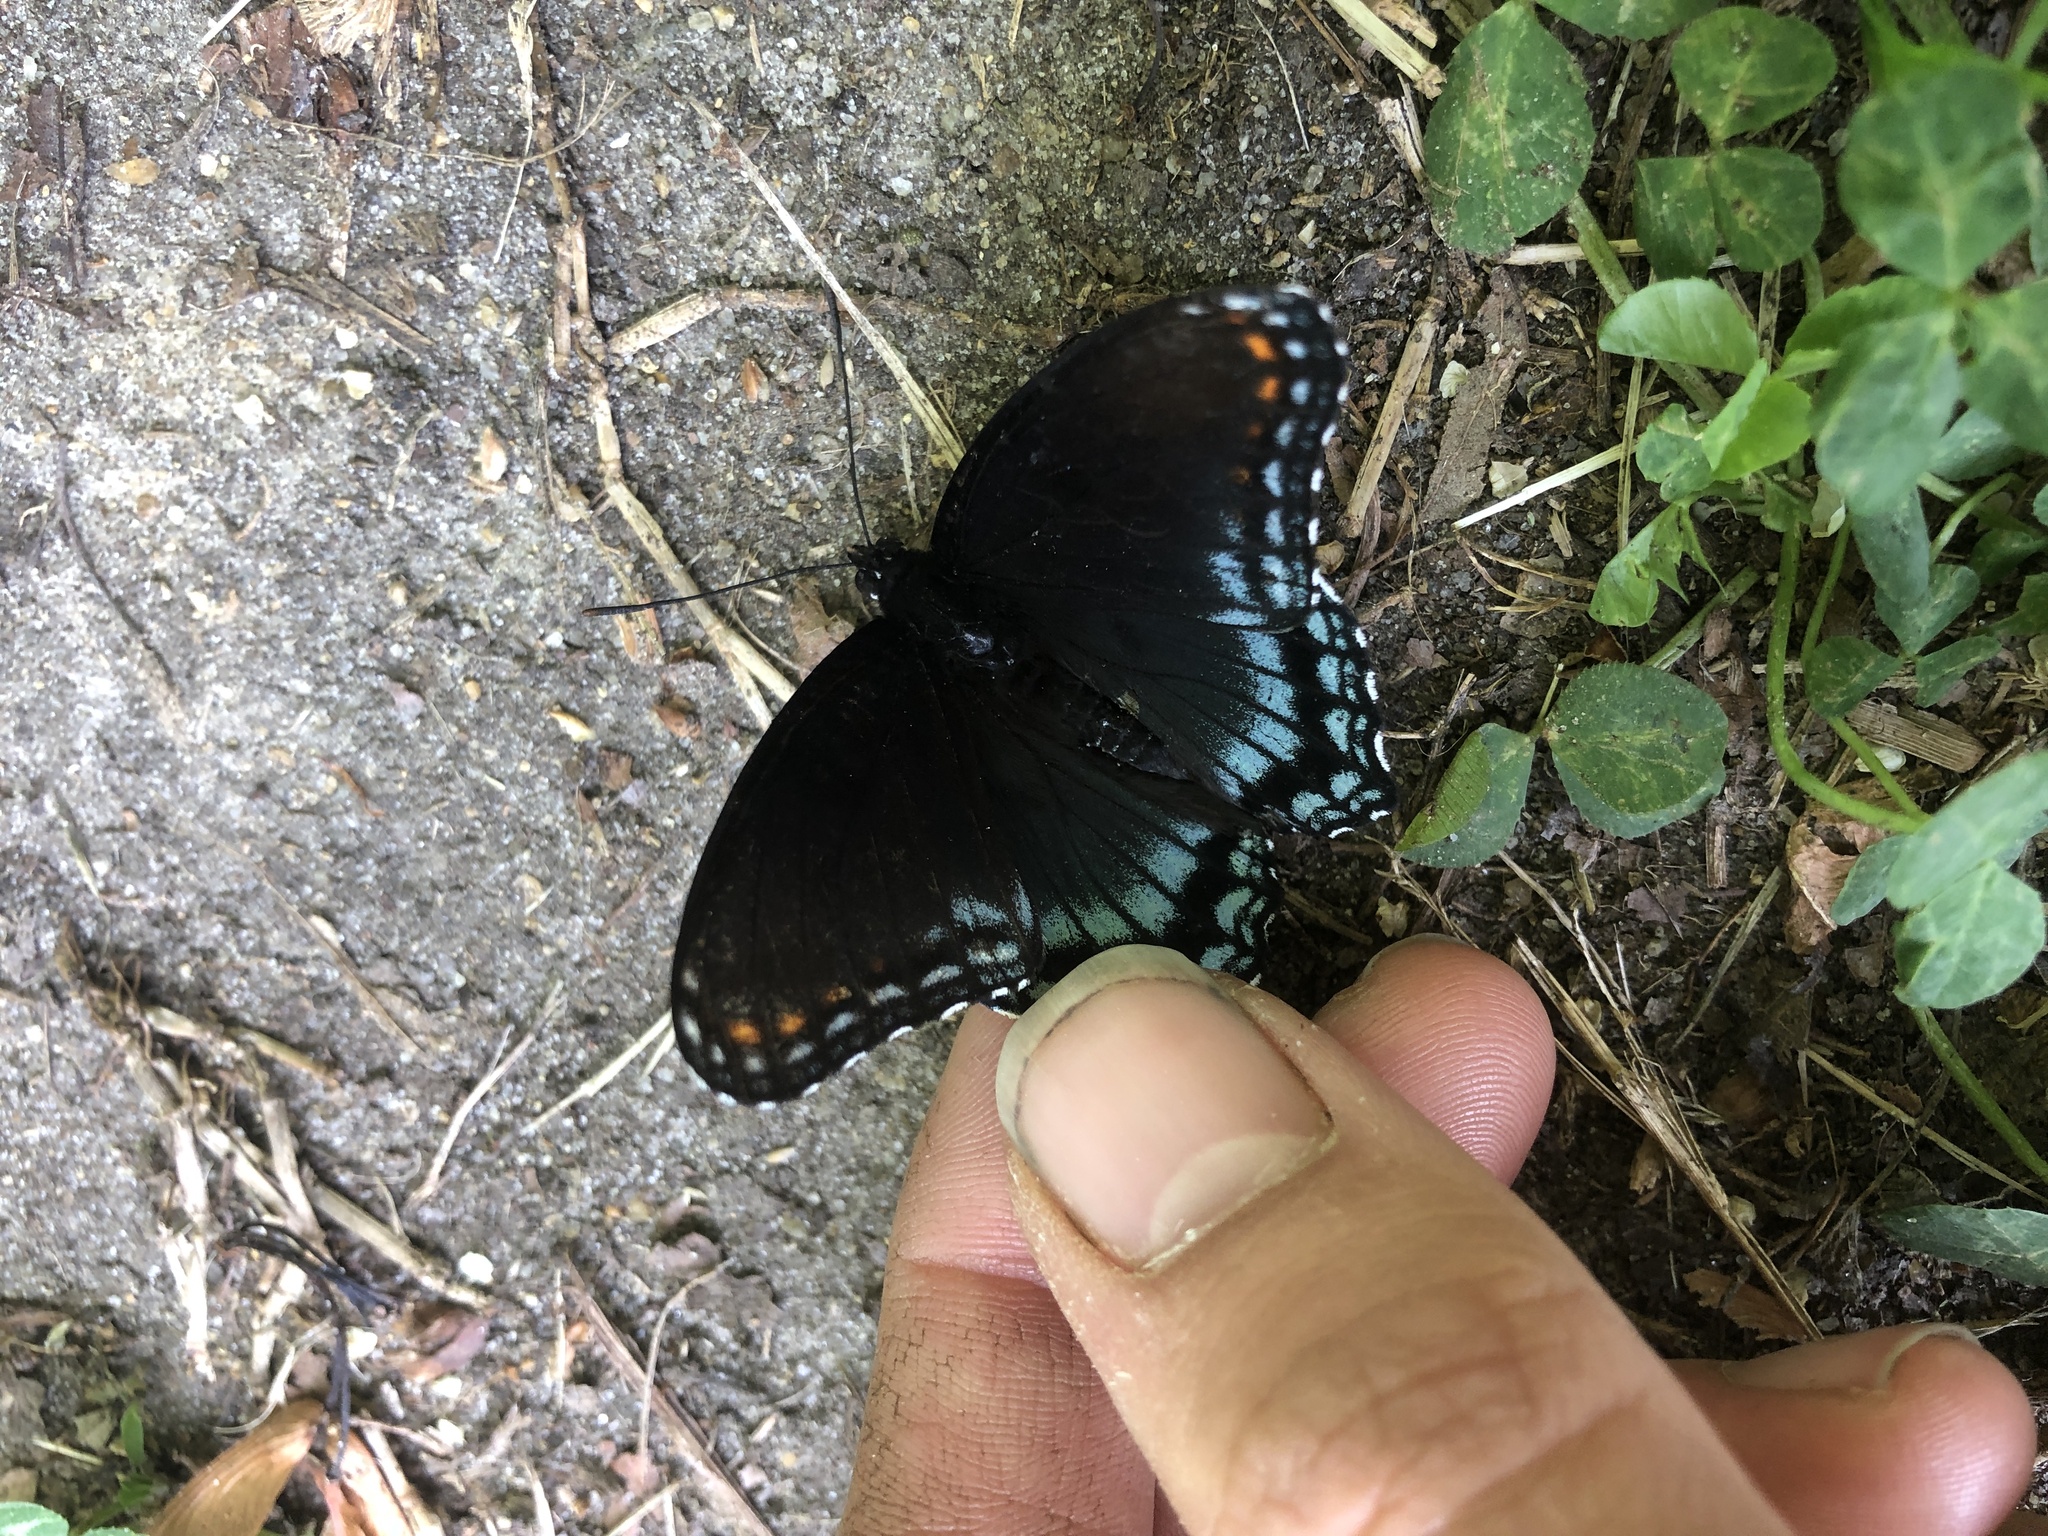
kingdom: Animalia
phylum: Arthropoda
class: Insecta
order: Lepidoptera
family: Nymphalidae
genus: Limenitis
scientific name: Limenitis astyanax
